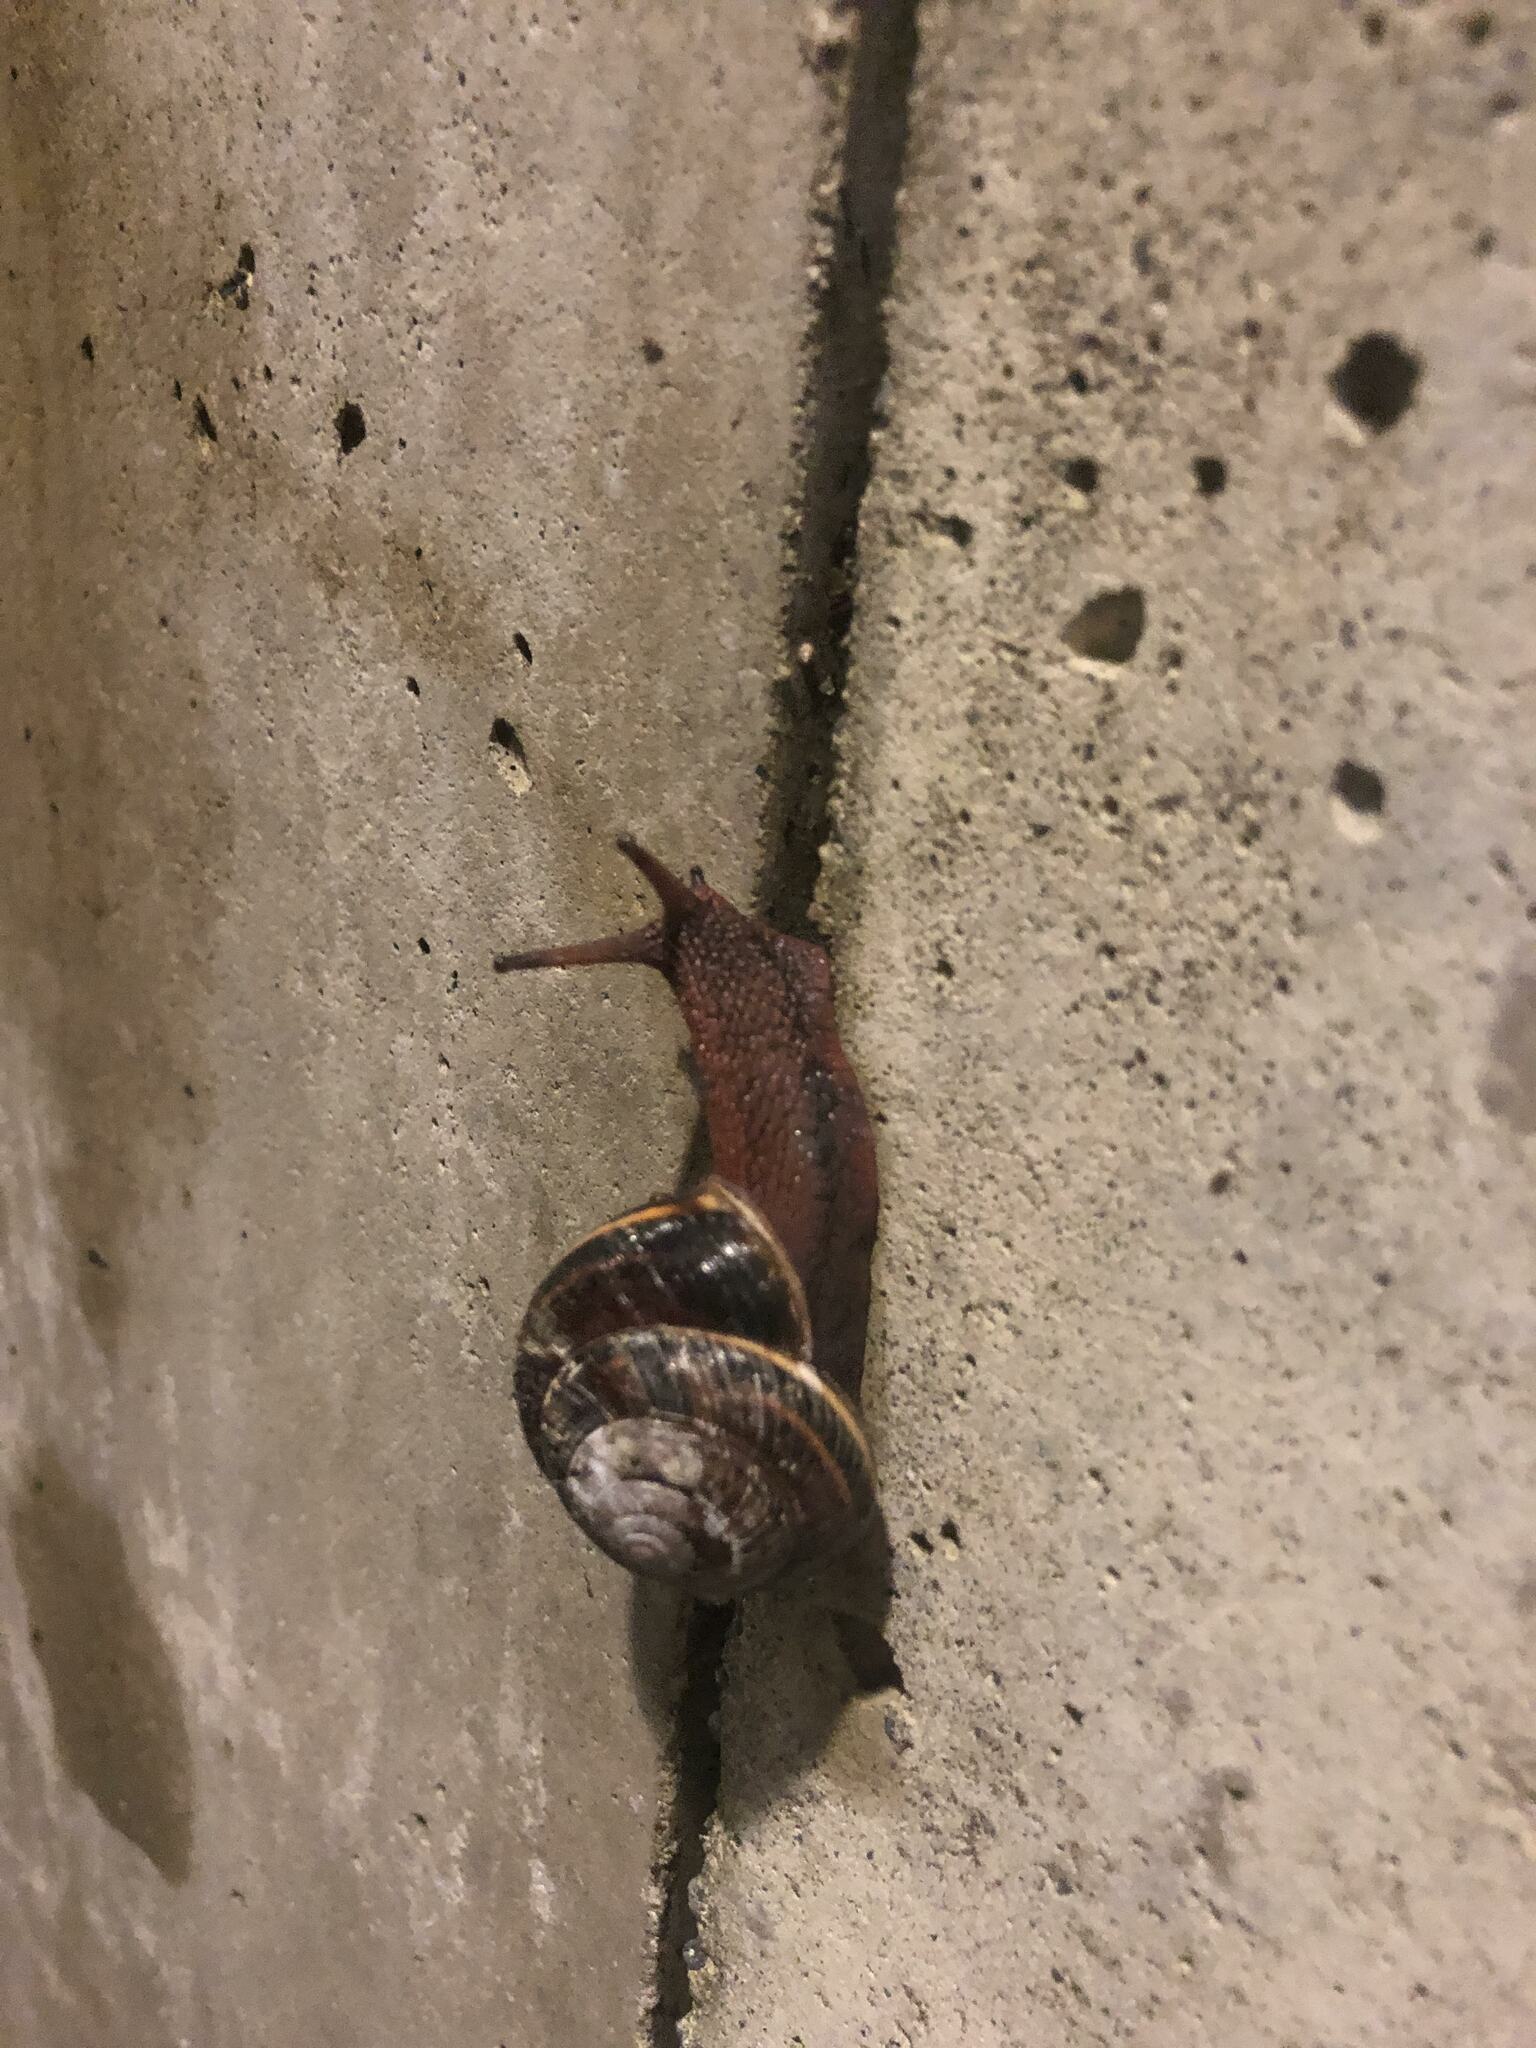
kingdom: Animalia
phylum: Mollusca
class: Gastropoda
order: Stylommatophora
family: Xanthonychidae
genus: Monadenia
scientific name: Monadenia fidelis
